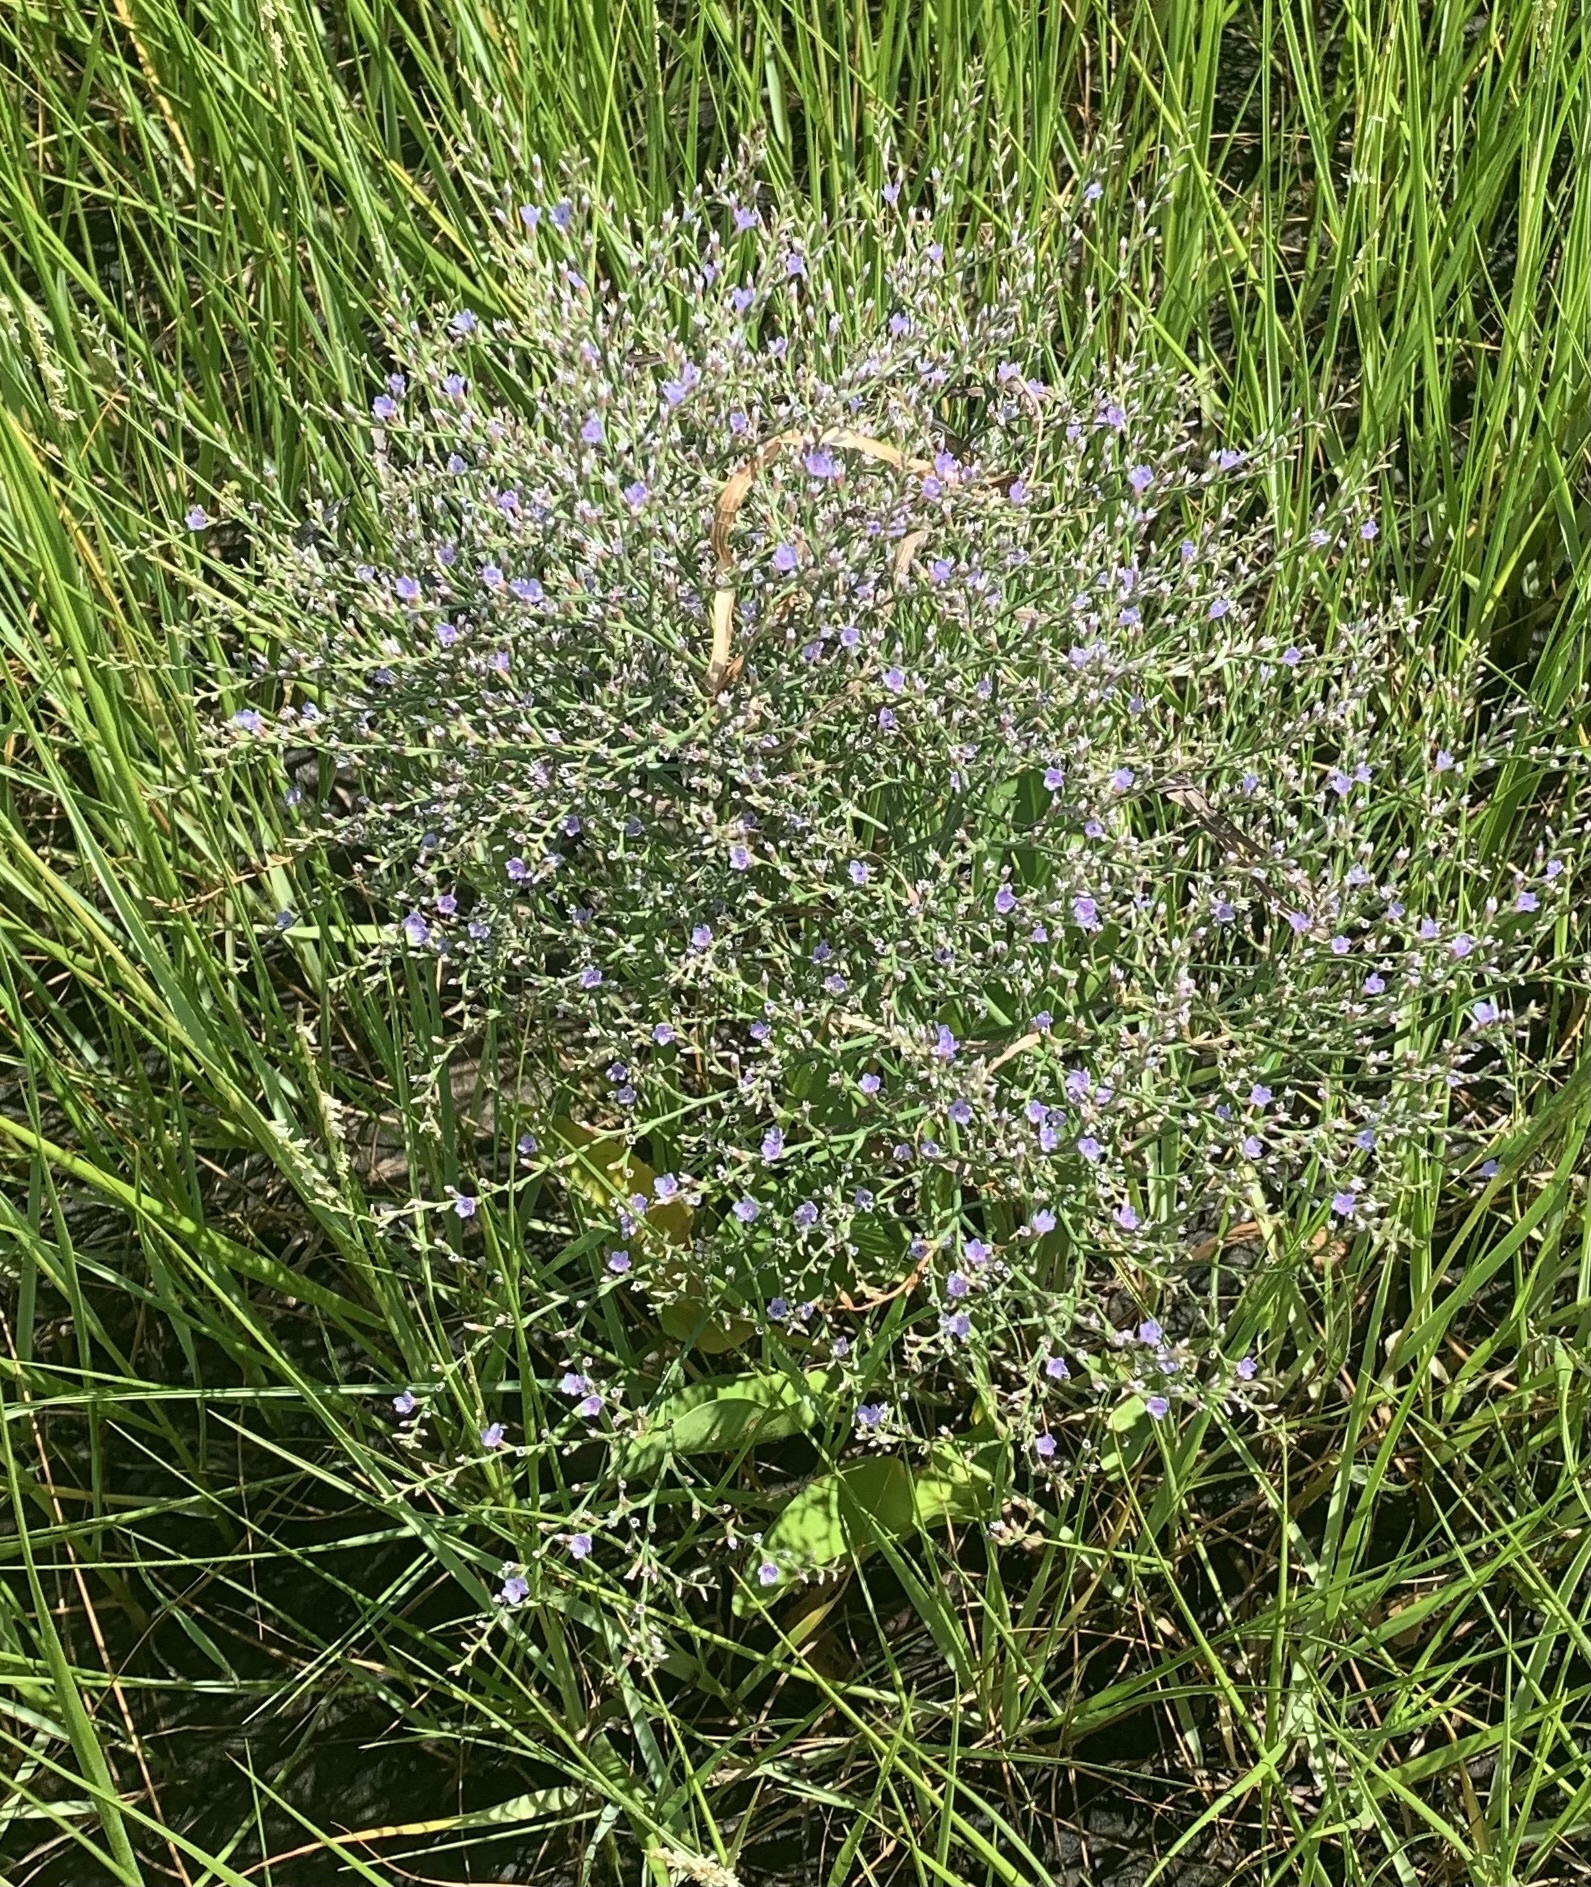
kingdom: Plantae
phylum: Tracheophyta
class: Magnoliopsida
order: Caryophyllales
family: Plumbaginaceae
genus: Limonium
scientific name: Limonium carolinianum
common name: Carolina sea lavender
